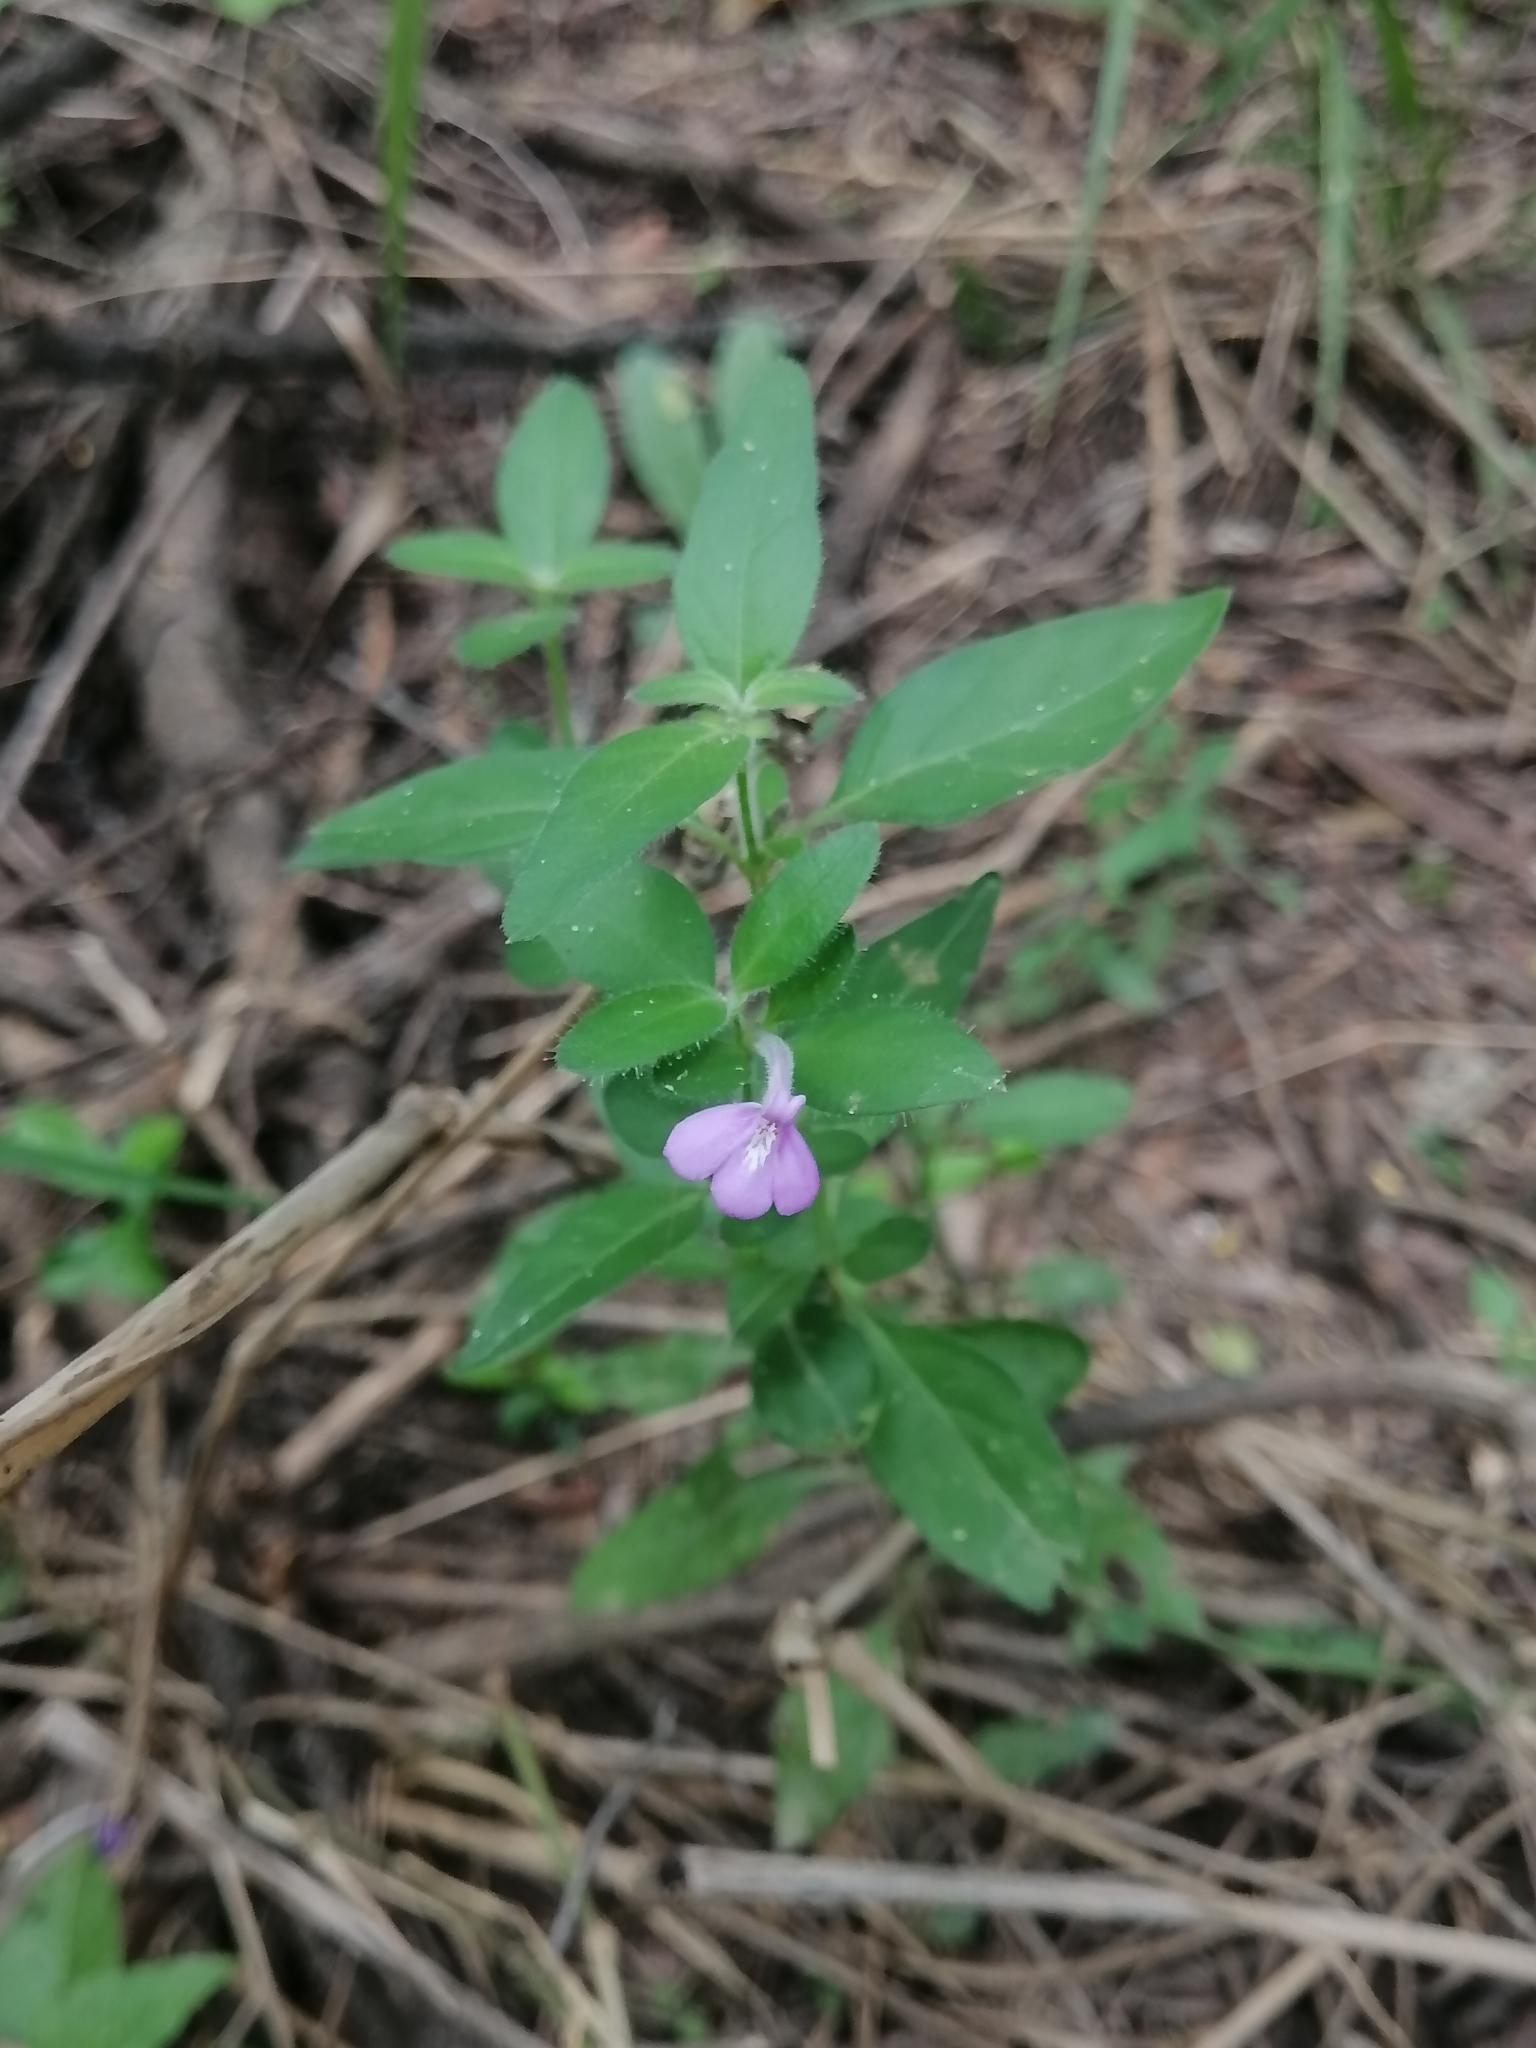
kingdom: Plantae
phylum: Tracheophyta
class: Magnoliopsida
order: Lamiales
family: Acanthaceae
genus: Justicia
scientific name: Justicia pilosella
